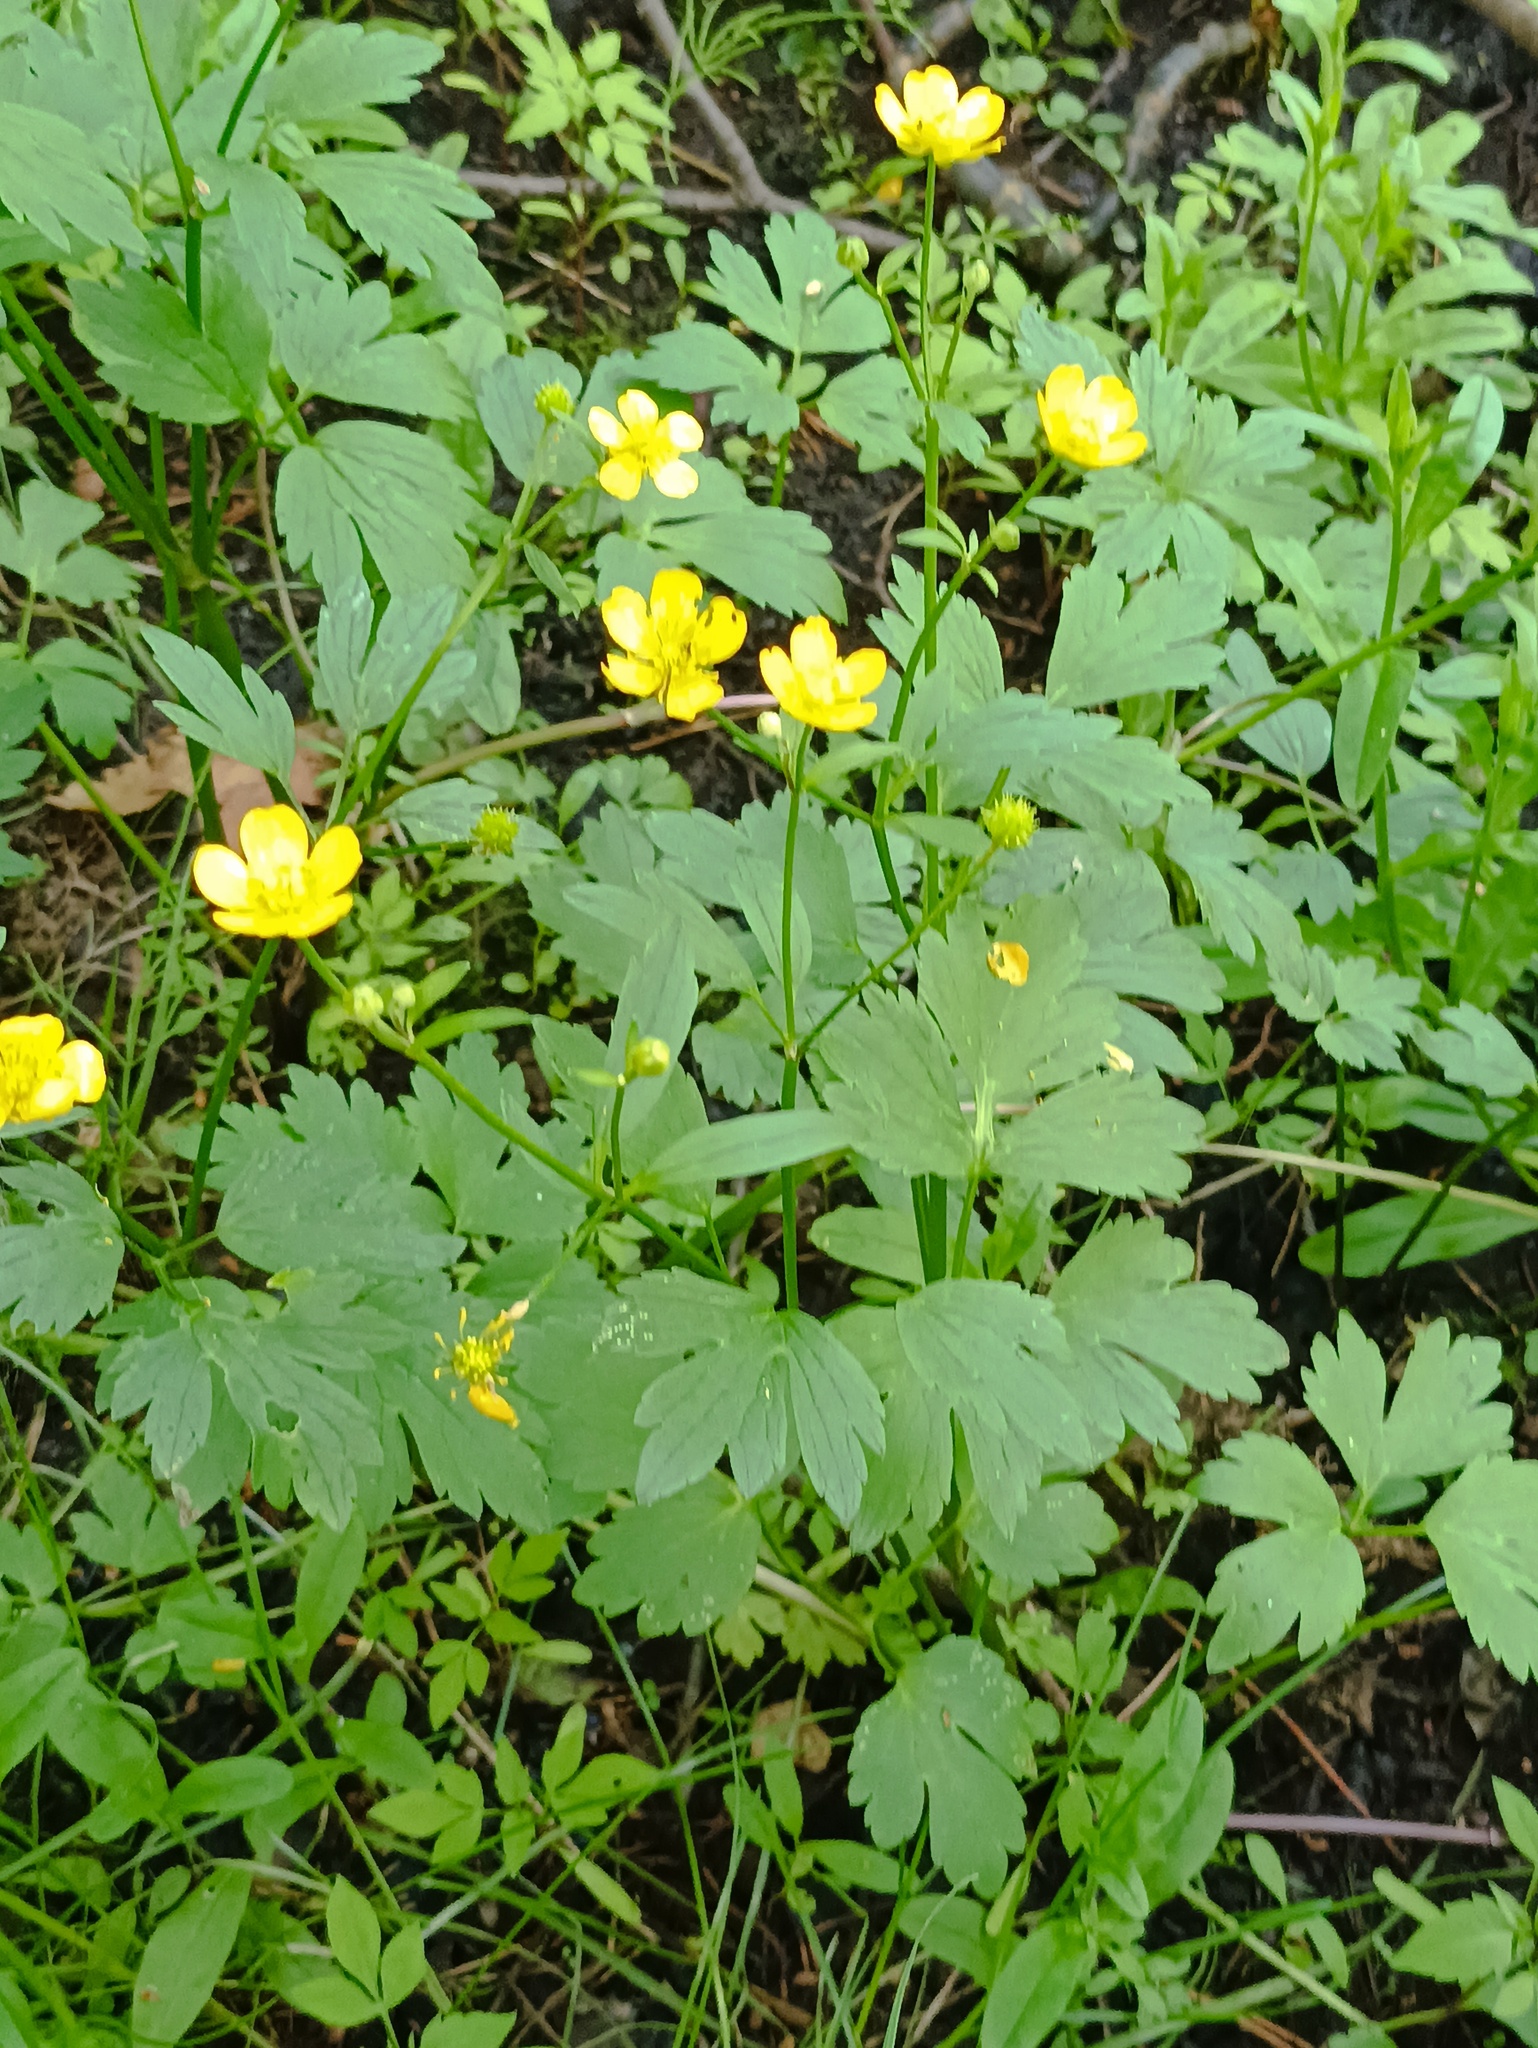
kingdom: Plantae
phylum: Tracheophyta
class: Magnoliopsida
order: Ranunculales
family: Ranunculaceae
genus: Ranunculus
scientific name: Ranunculus repens
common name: Creeping buttercup
